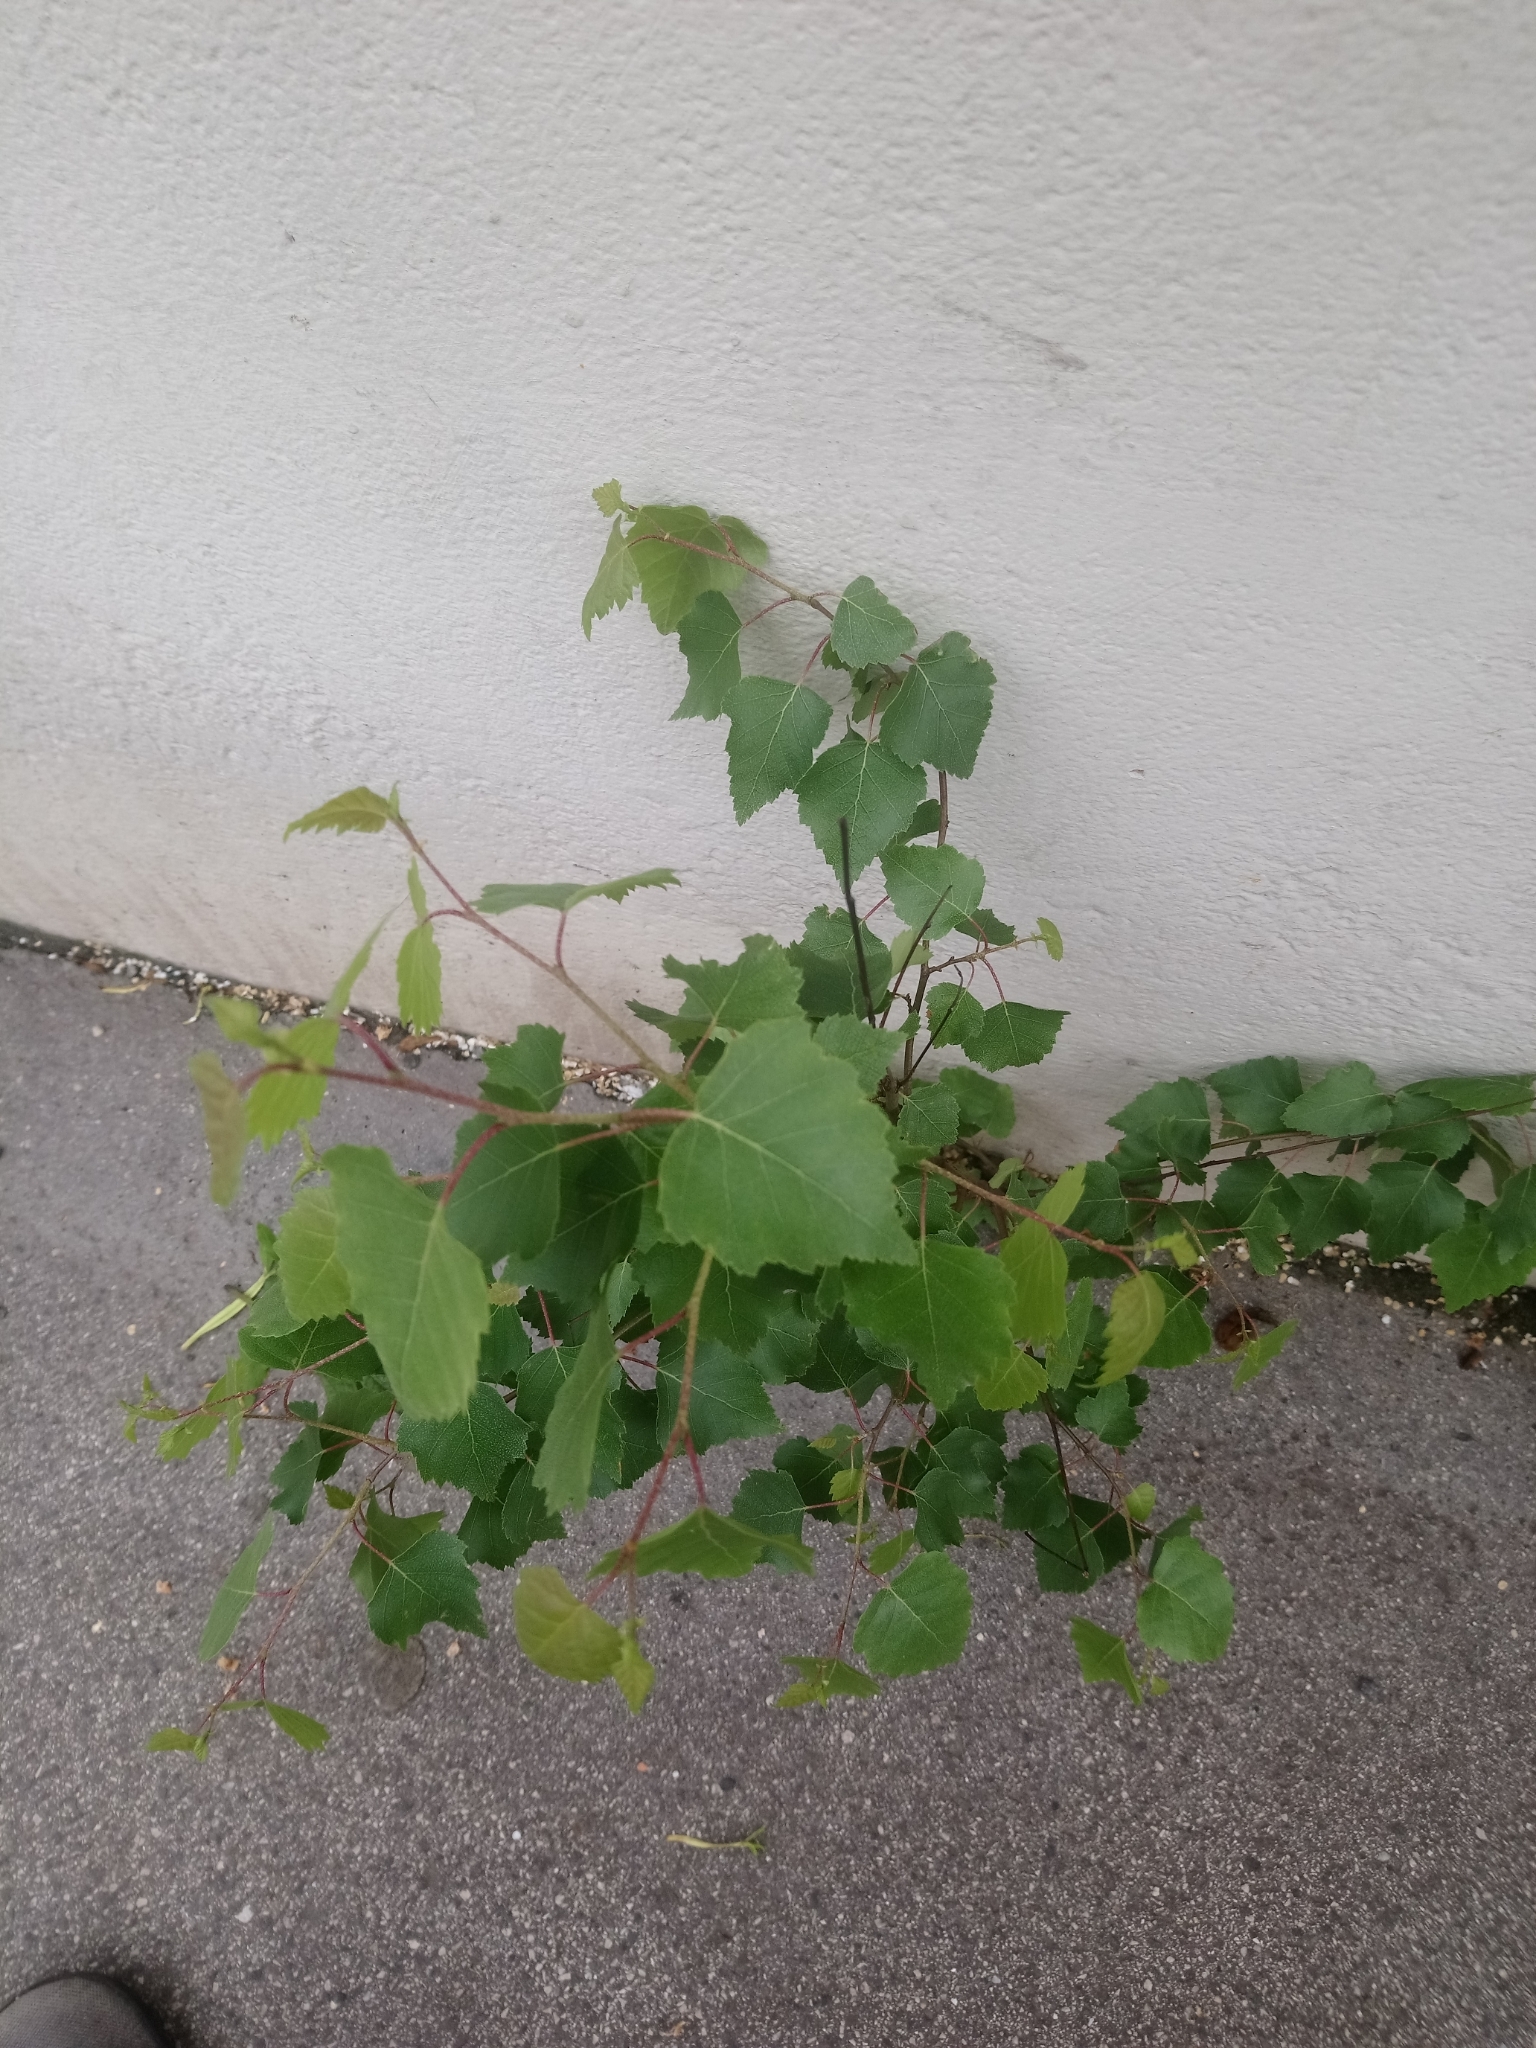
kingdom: Plantae
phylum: Tracheophyta
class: Magnoliopsida
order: Fagales
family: Betulaceae
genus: Betula
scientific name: Betula pendula
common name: Silver birch
